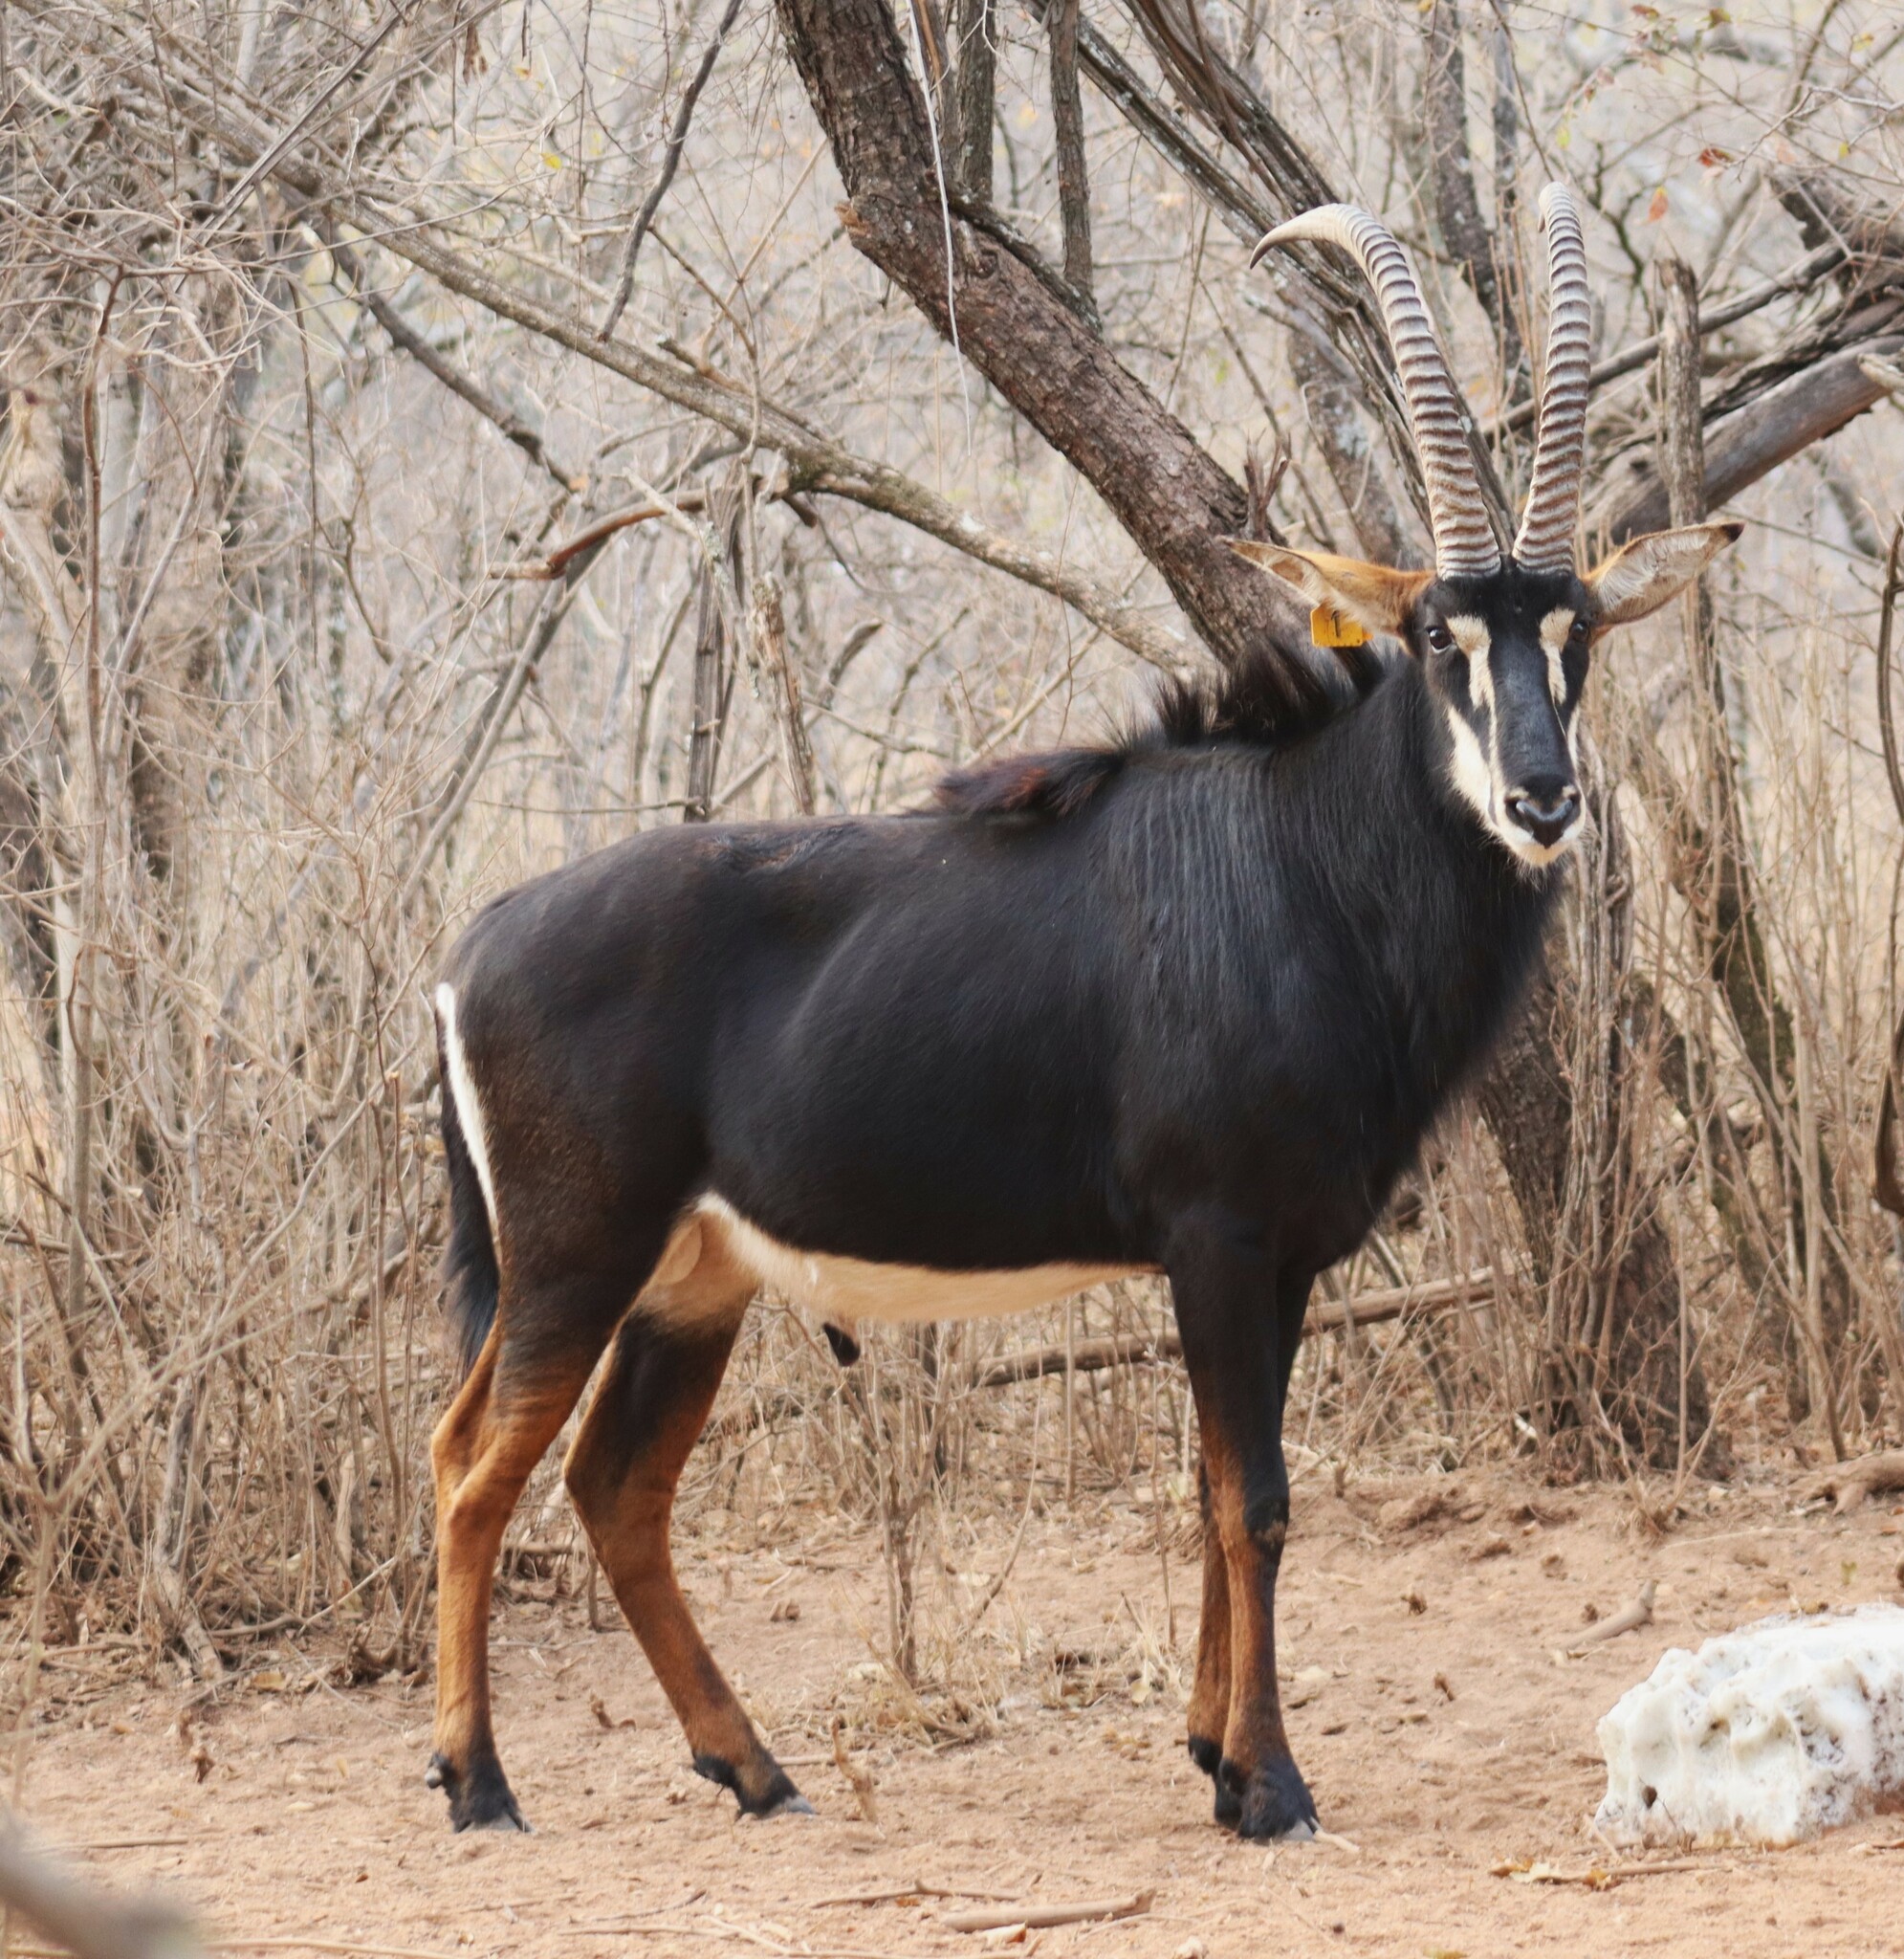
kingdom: Animalia
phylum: Chordata
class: Mammalia
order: Artiodactyla
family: Bovidae
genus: Hippotragus
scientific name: Hippotragus niger
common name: Sable antelope
